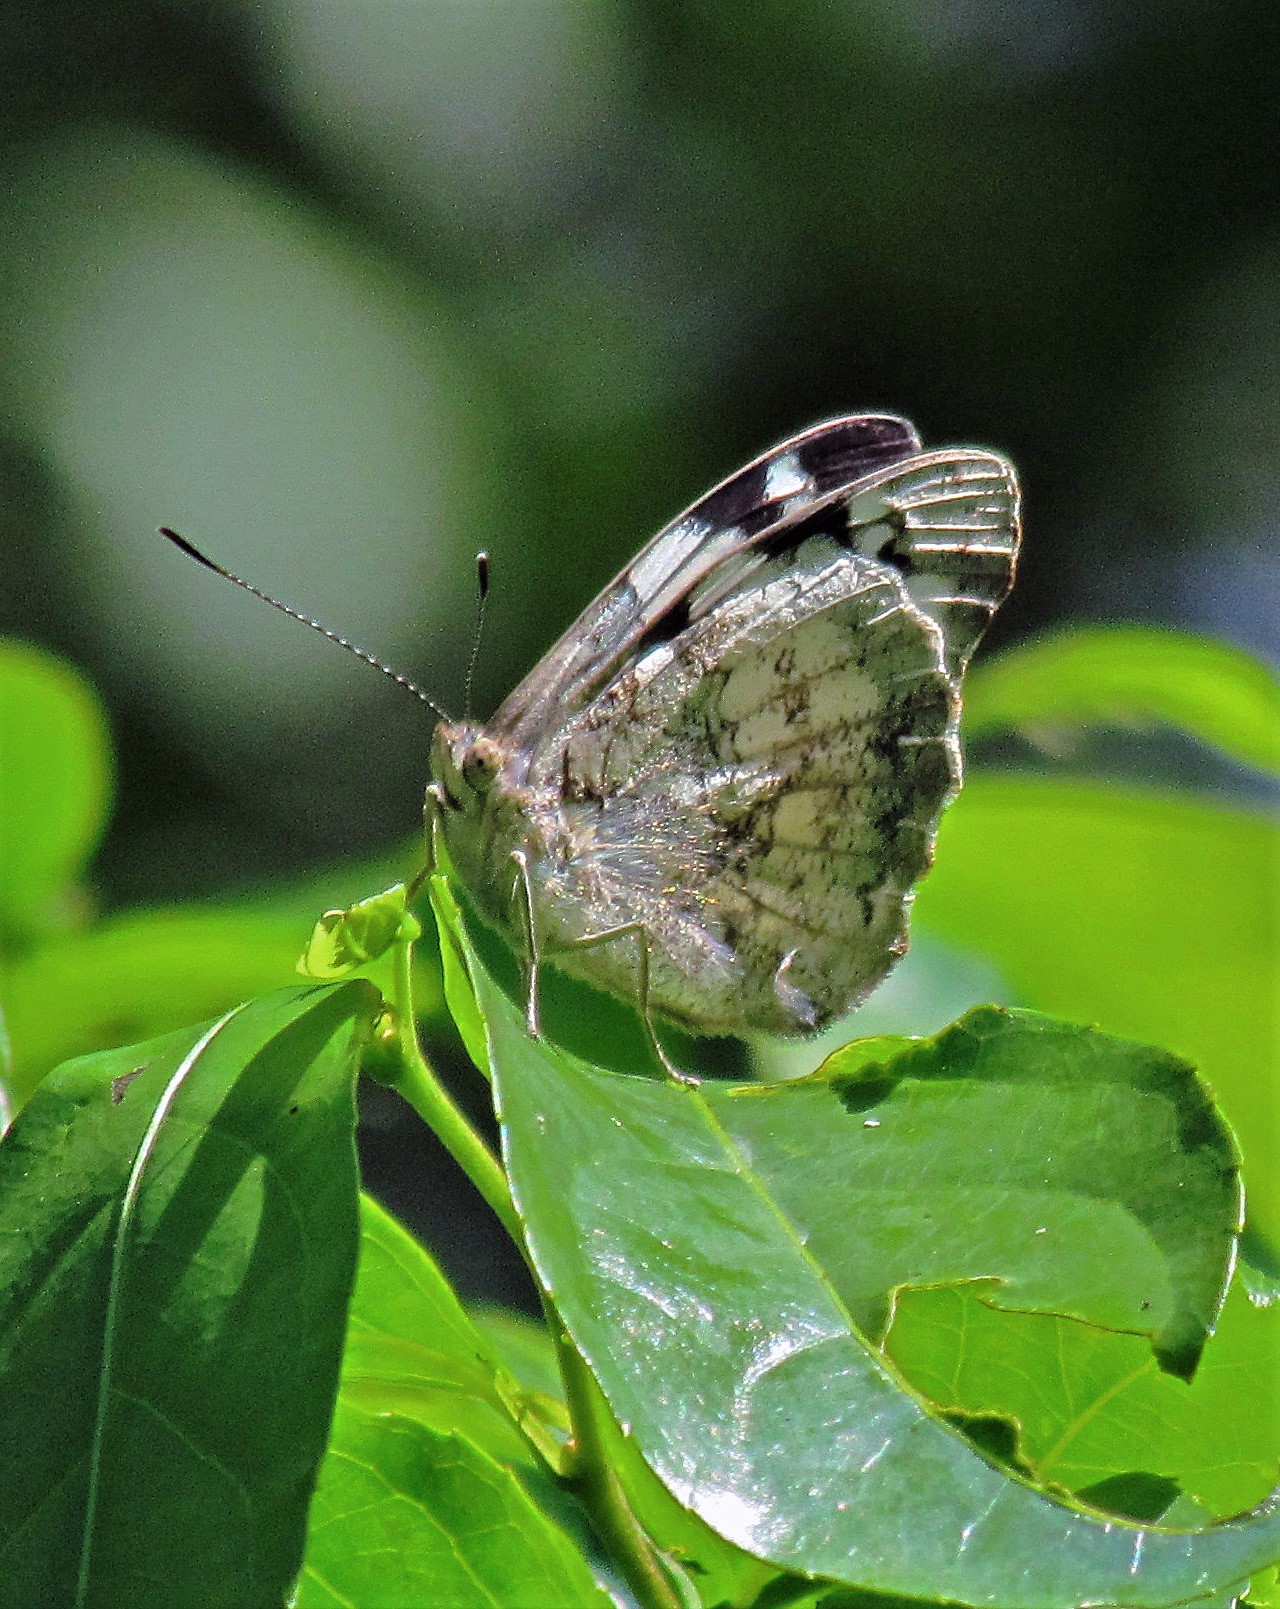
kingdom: Animalia
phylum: Arthropoda
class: Insecta
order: Lepidoptera
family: Nymphalidae
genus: Eunica
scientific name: Eunica margarita
